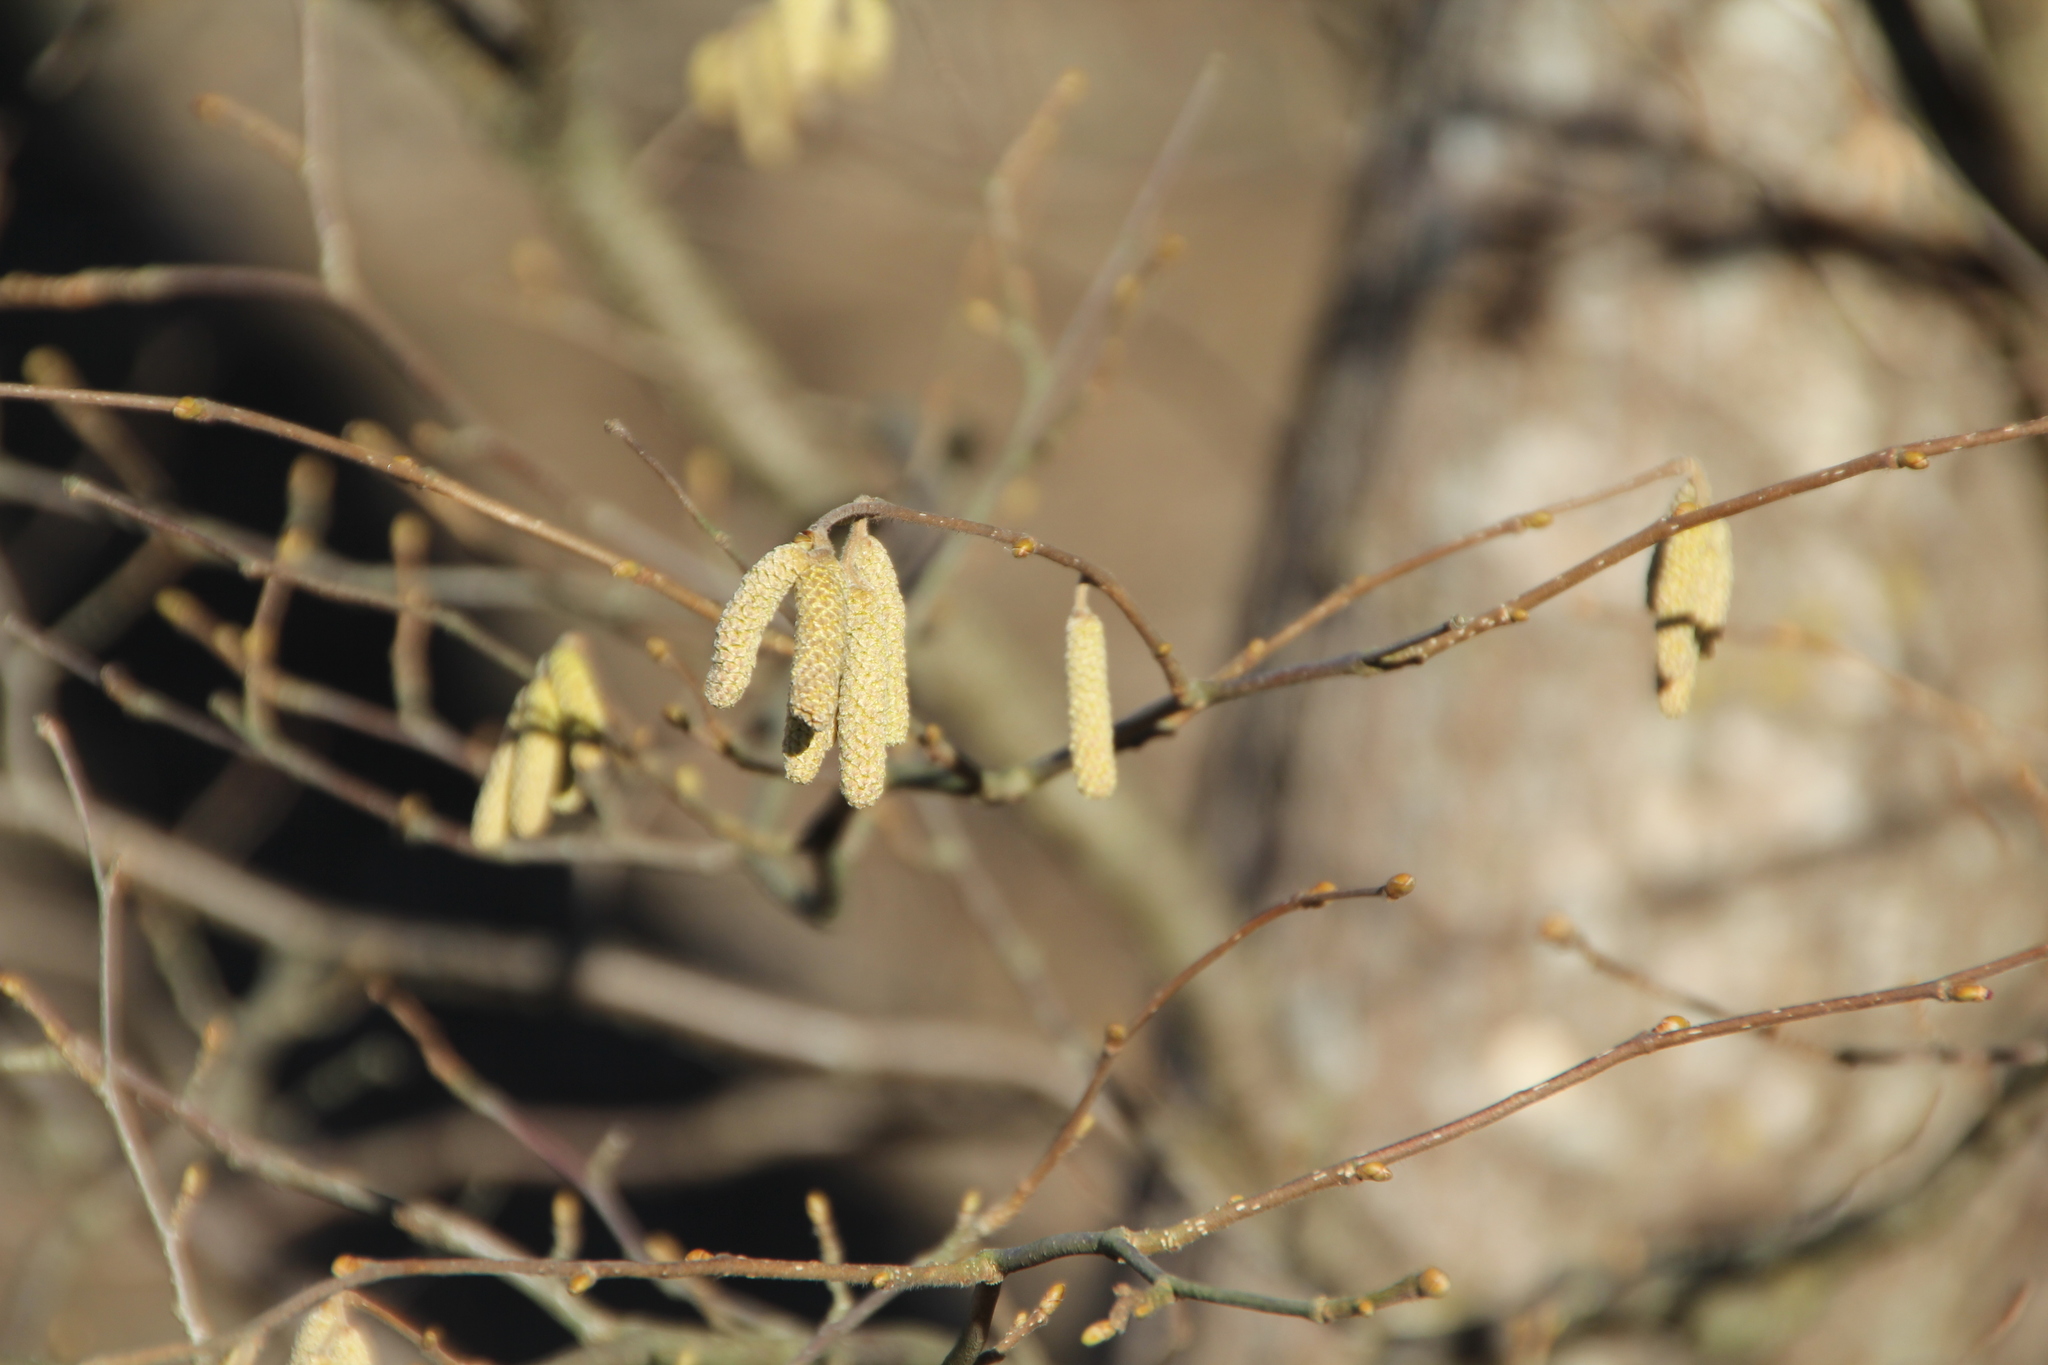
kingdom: Plantae
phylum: Tracheophyta
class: Magnoliopsida
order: Fagales
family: Betulaceae
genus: Corylus
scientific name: Corylus avellana
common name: European hazel
